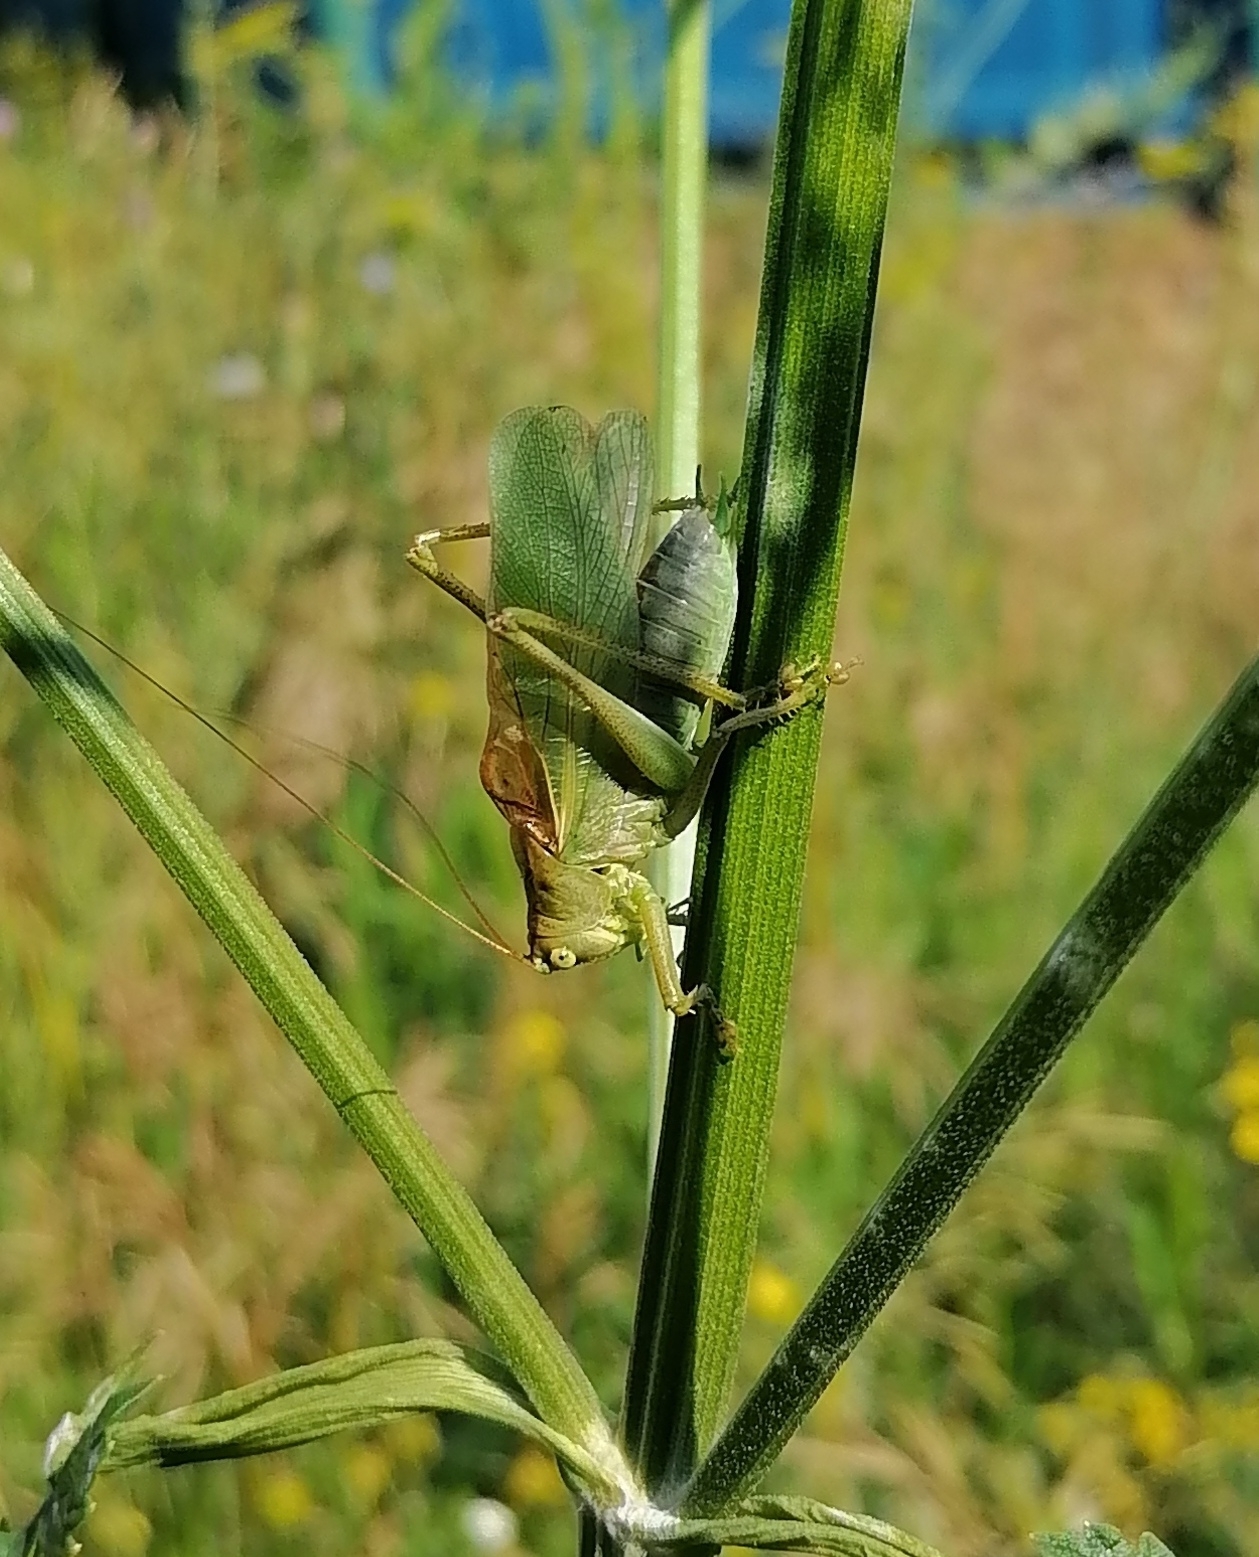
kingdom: Animalia
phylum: Arthropoda
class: Insecta
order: Orthoptera
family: Tettigoniidae
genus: Tettigonia
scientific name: Tettigonia cantans
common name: Upland green bush-cricket
